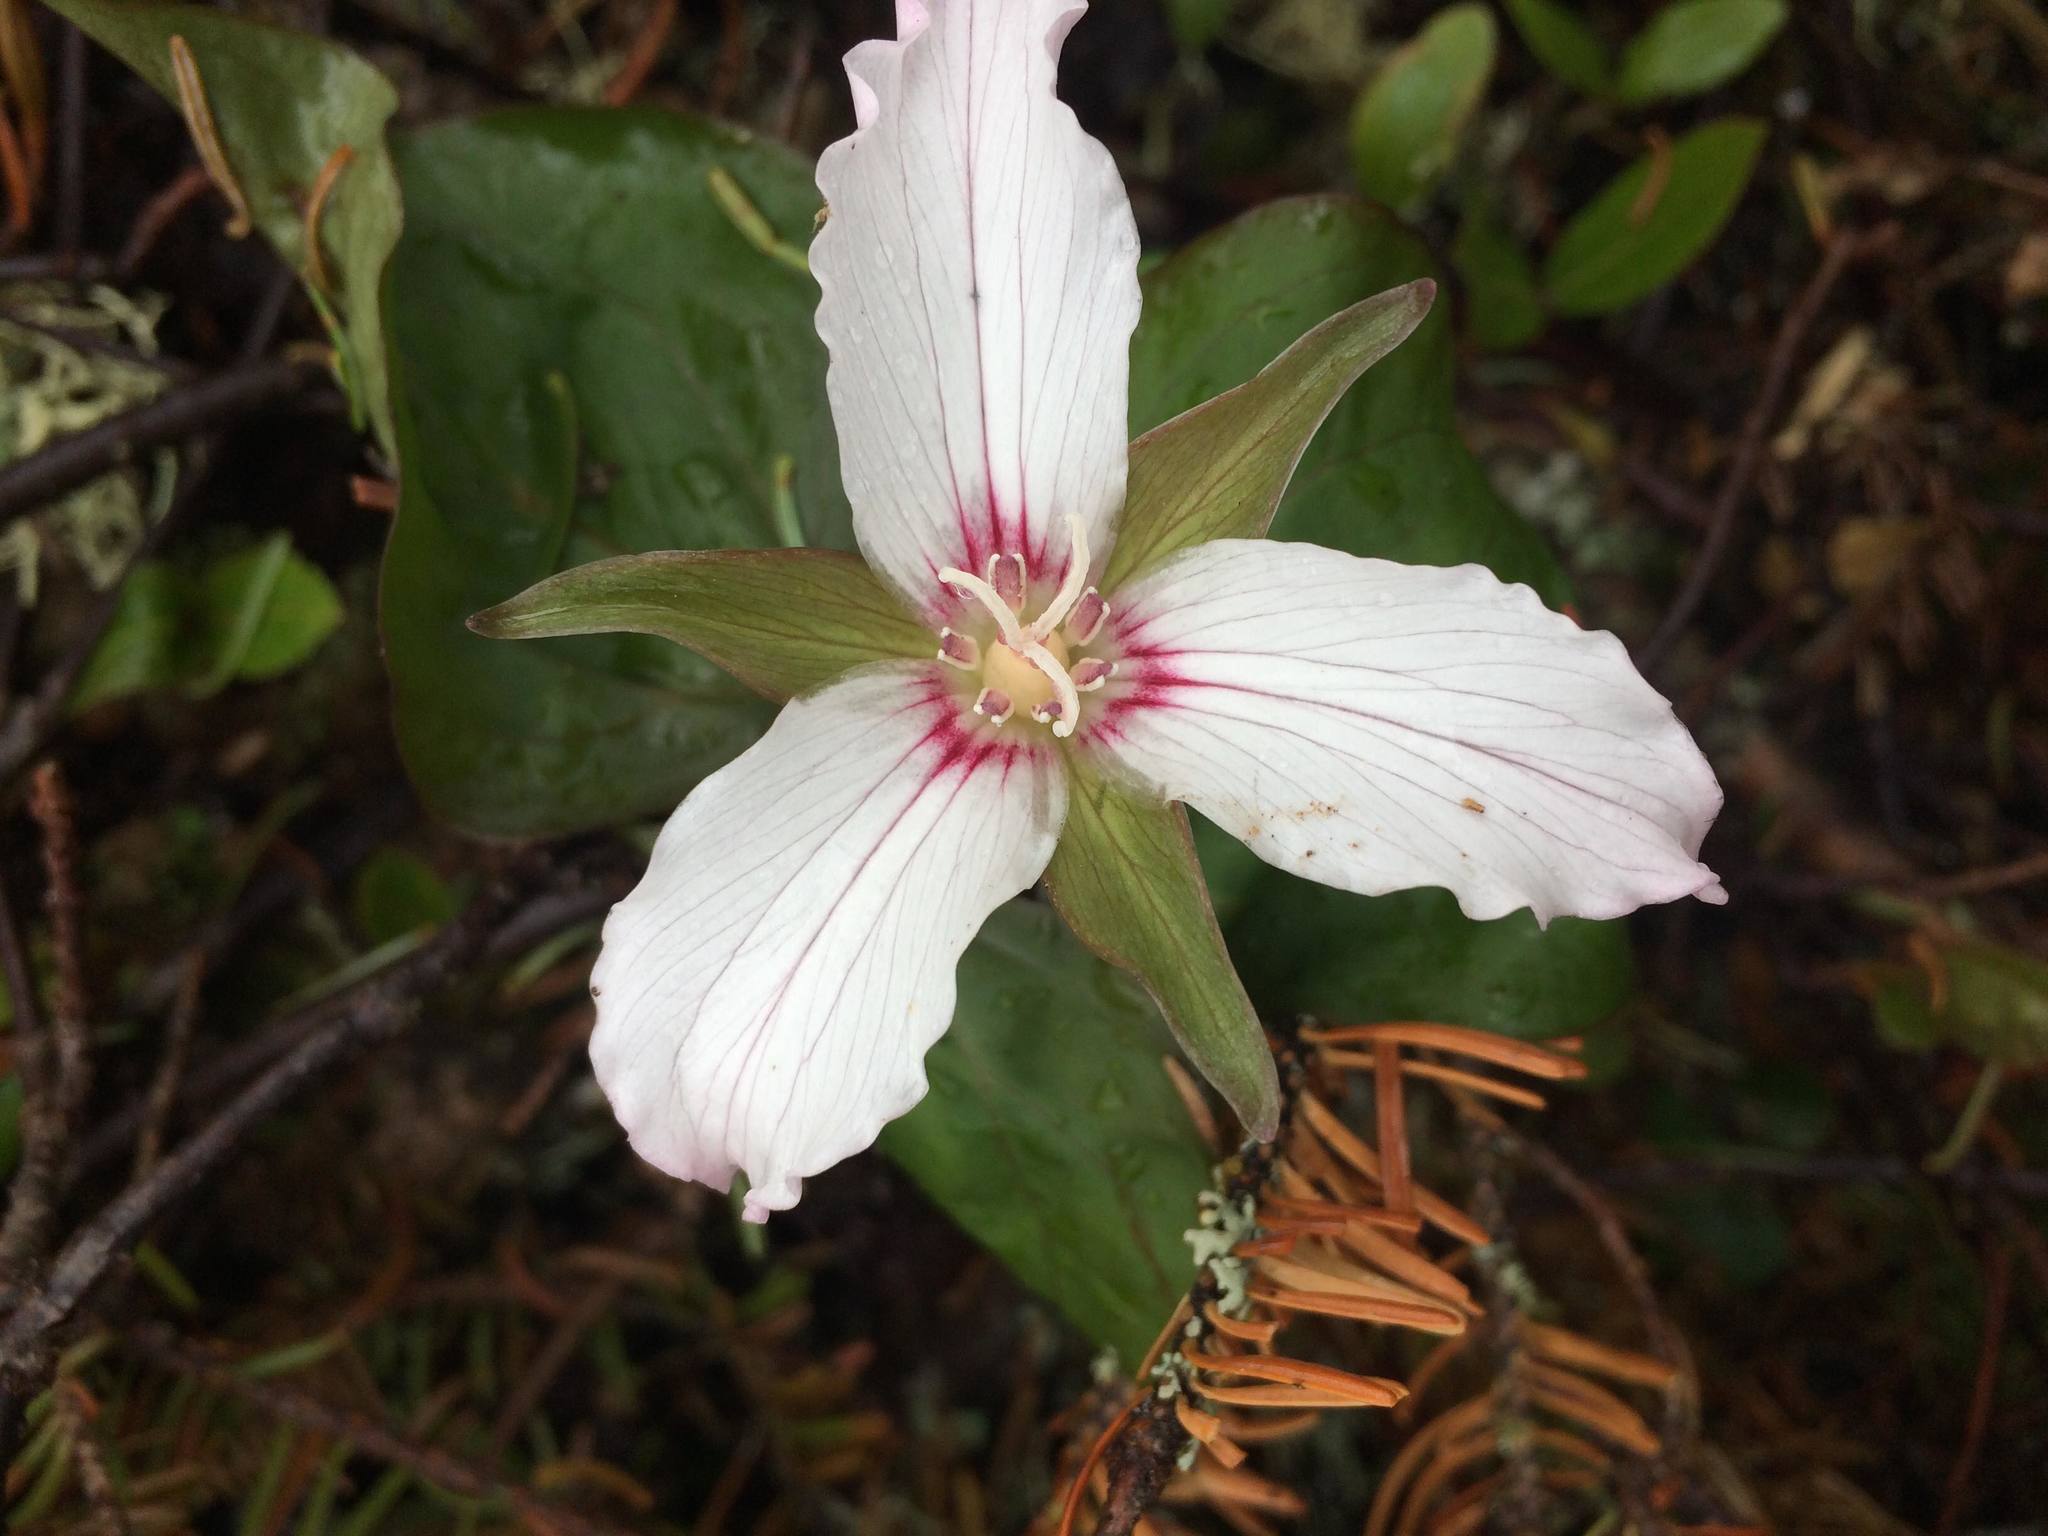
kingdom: Plantae
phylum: Tracheophyta
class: Liliopsida
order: Liliales
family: Melanthiaceae
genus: Trillium
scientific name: Trillium undulatum
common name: Paint trillium
